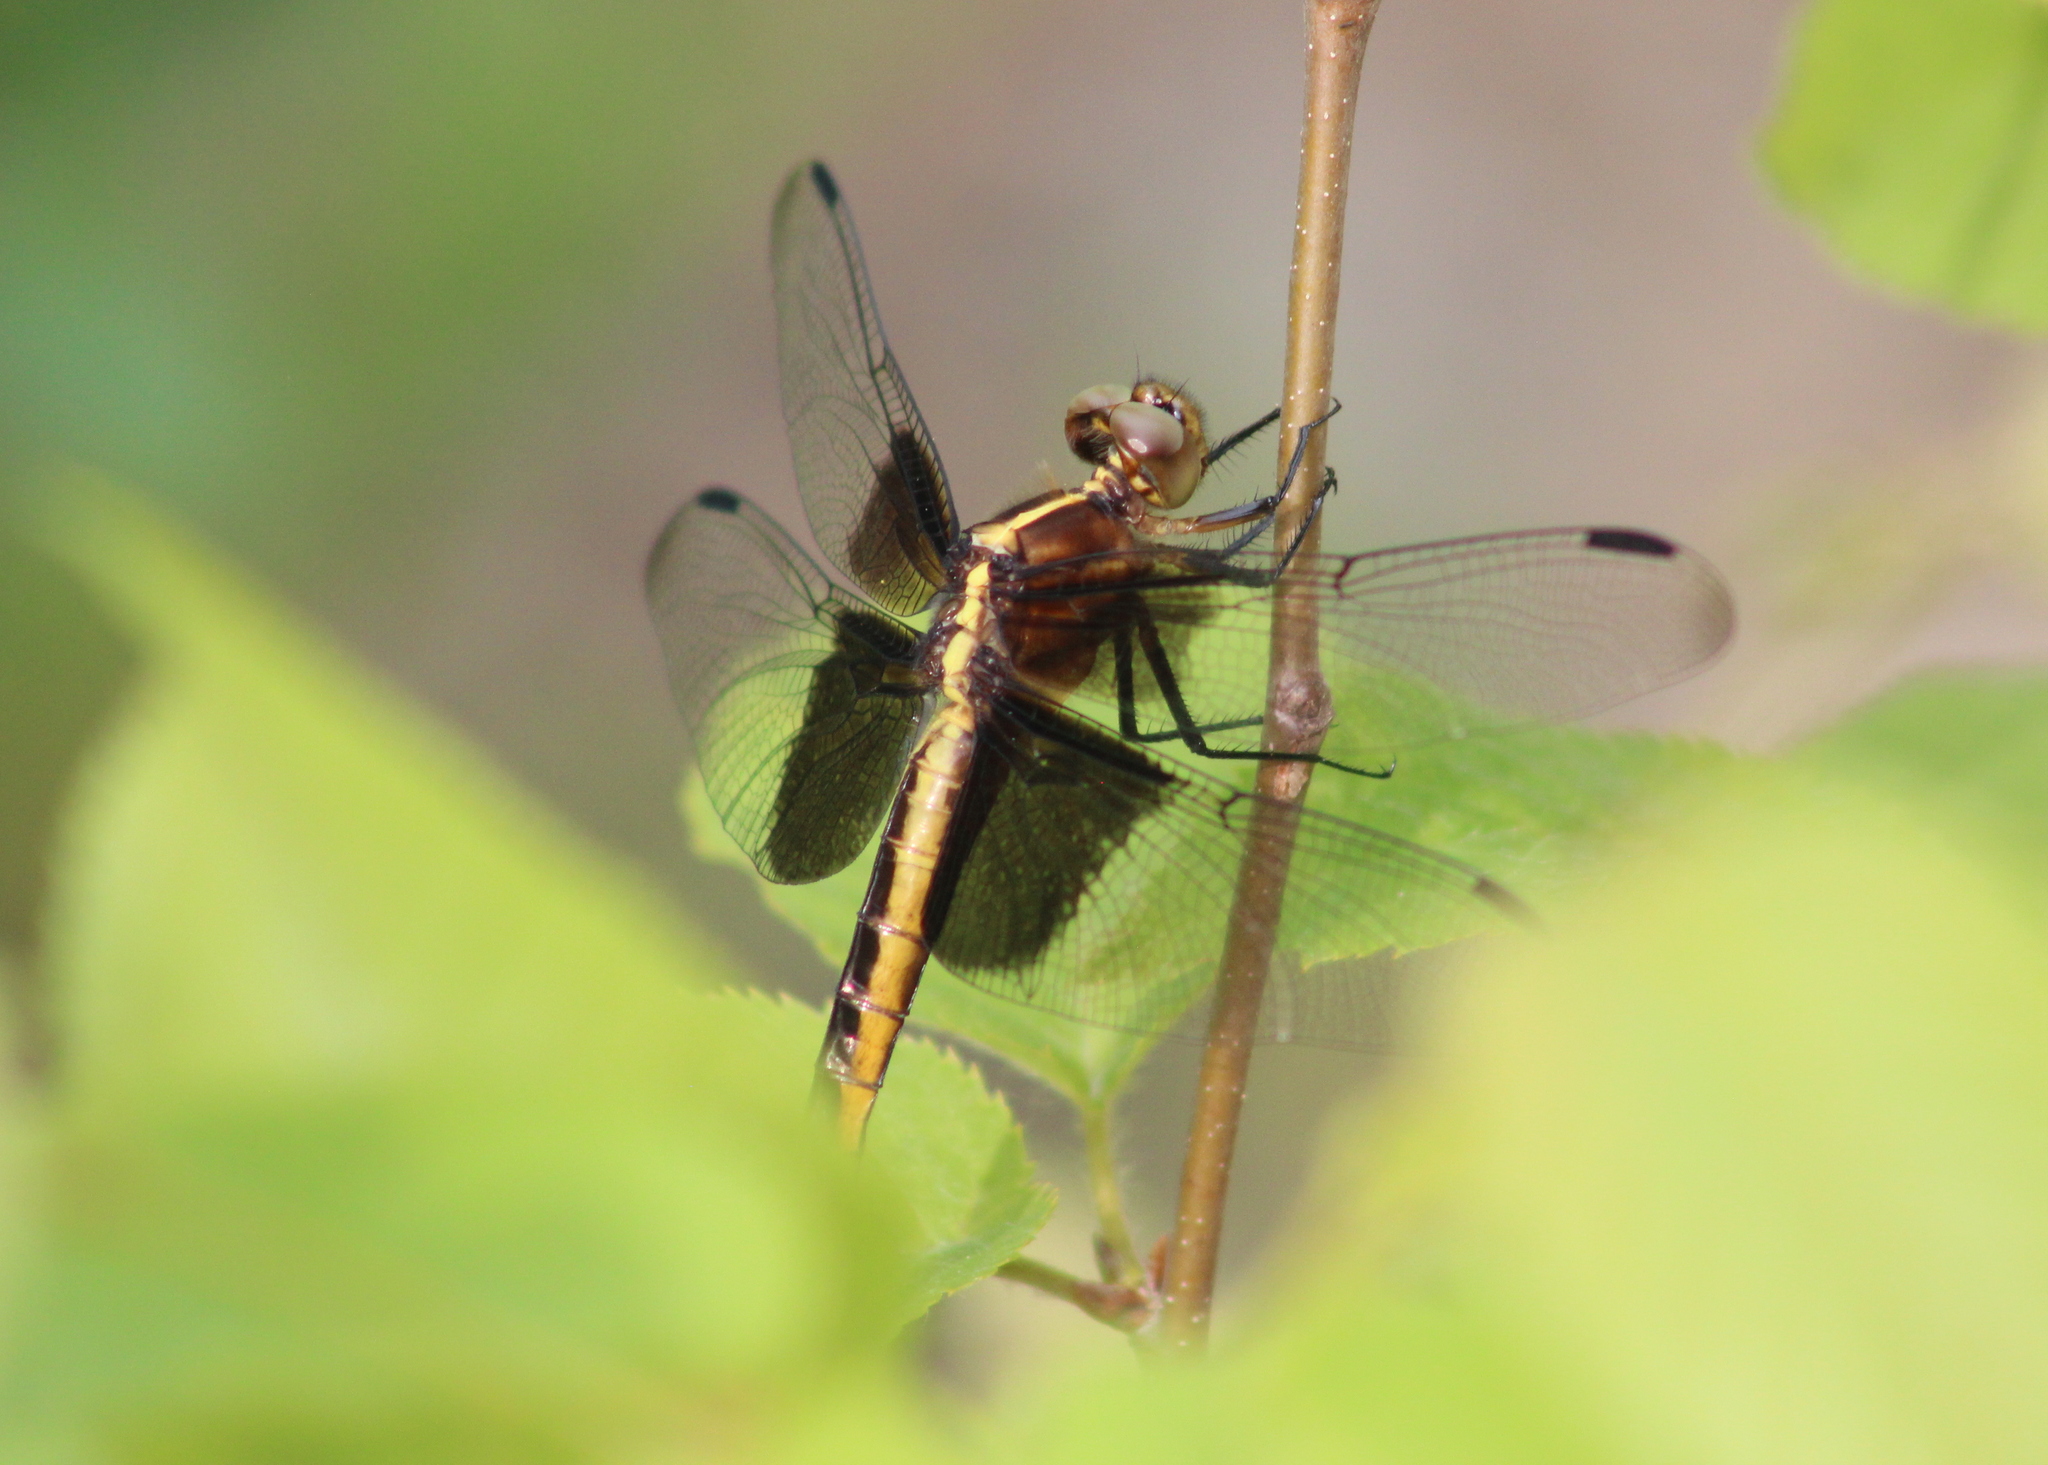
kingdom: Animalia
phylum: Arthropoda
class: Insecta
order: Odonata
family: Libellulidae
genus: Libellula
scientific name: Libellula luctuosa
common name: Widow skimmer
